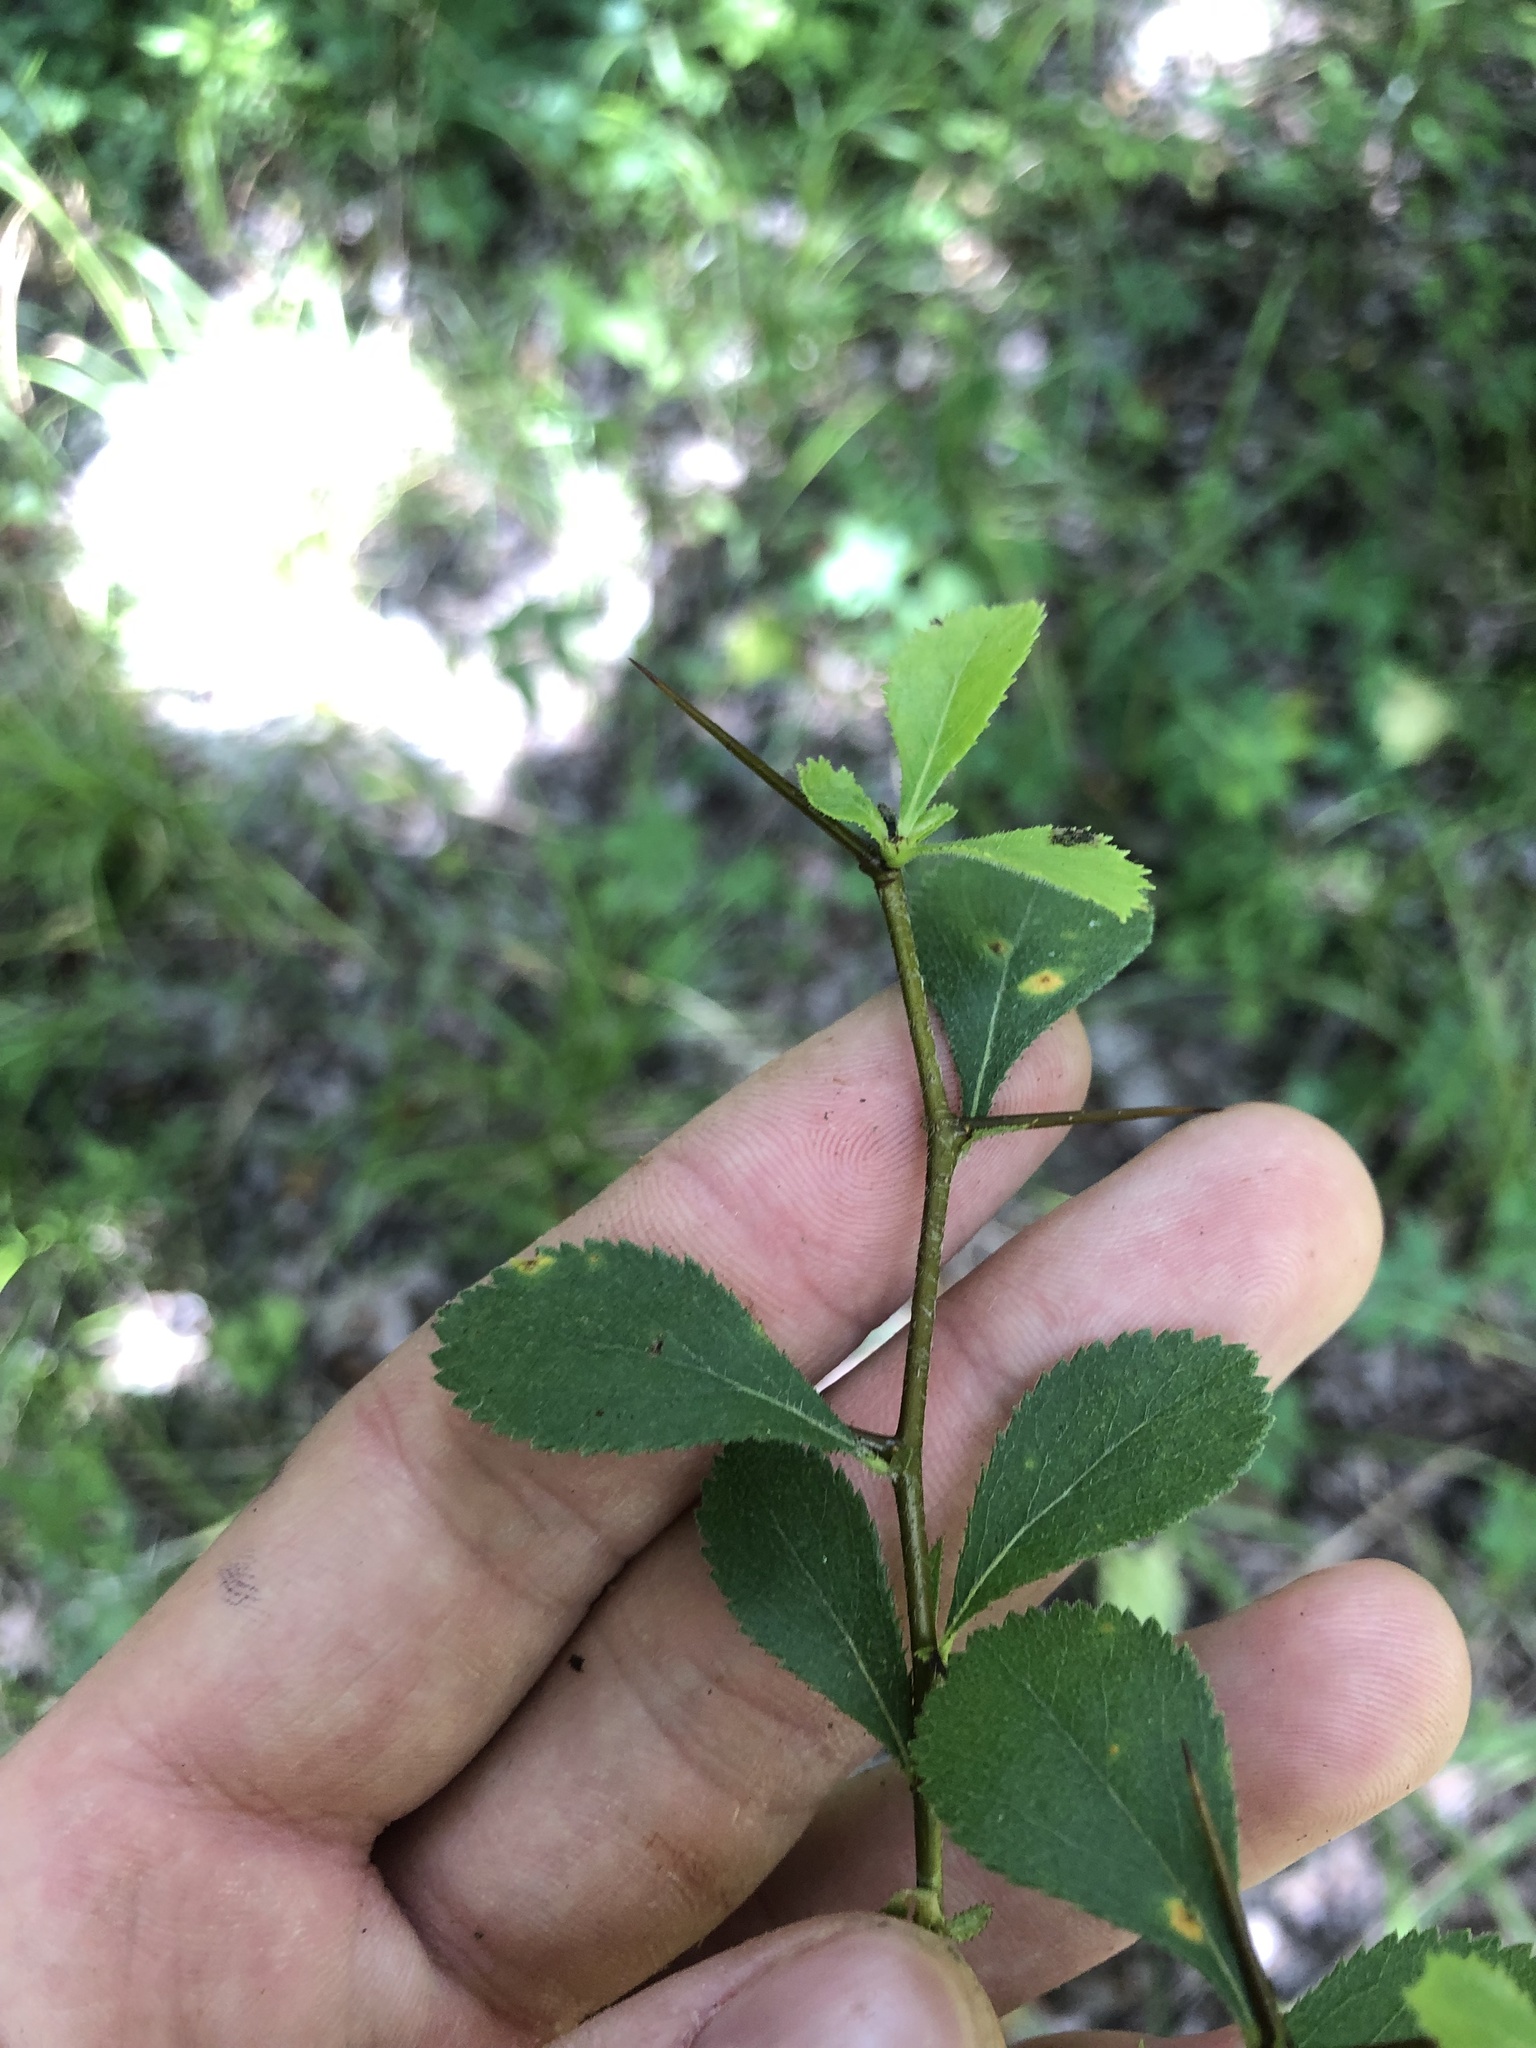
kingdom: Plantae
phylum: Tracheophyta
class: Magnoliopsida
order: Rosales
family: Rosaceae
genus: Crataegus
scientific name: Crataegus berberifolia
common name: Barberry hawthorn
